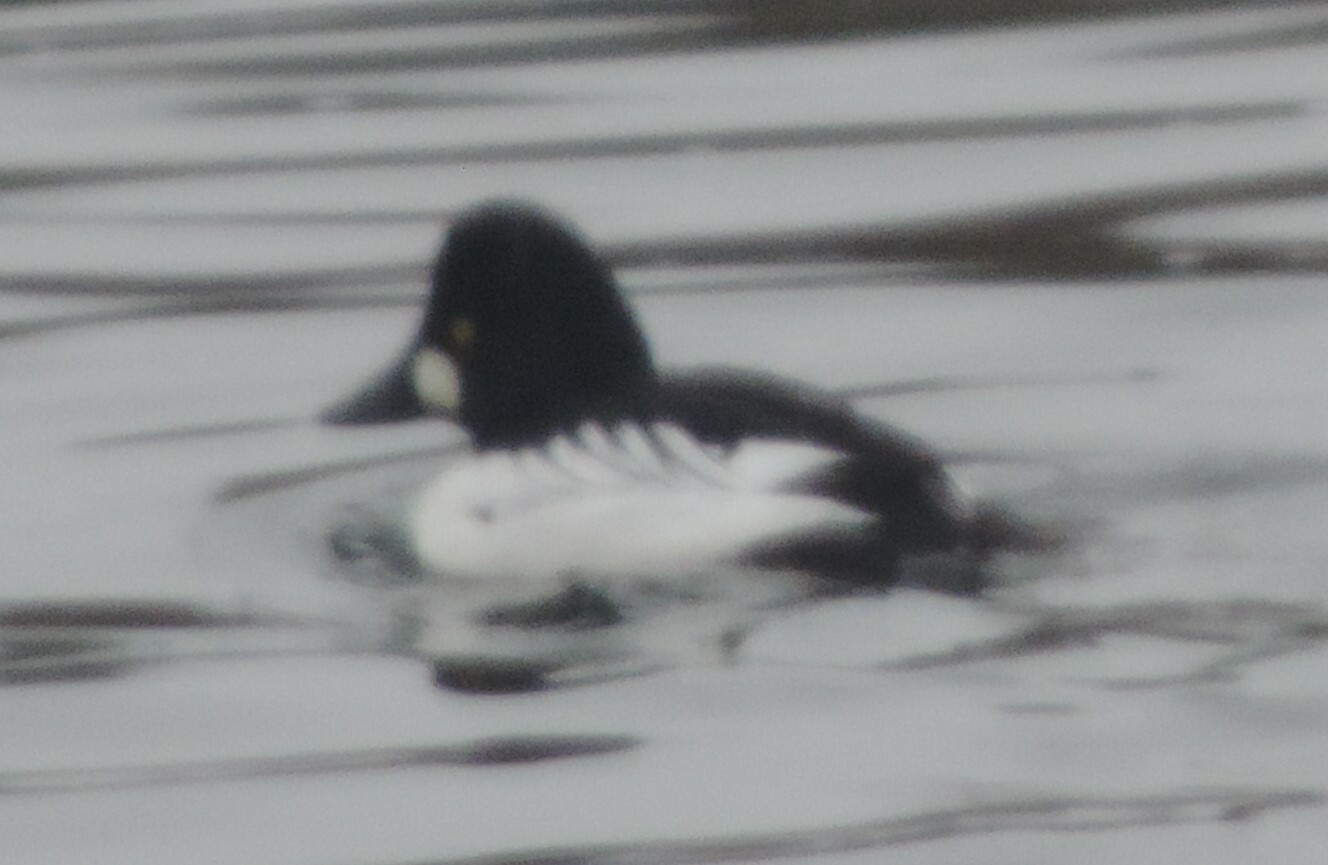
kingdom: Animalia
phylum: Chordata
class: Aves
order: Anseriformes
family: Anatidae
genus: Bucephala
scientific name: Bucephala clangula
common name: Common goldeneye
